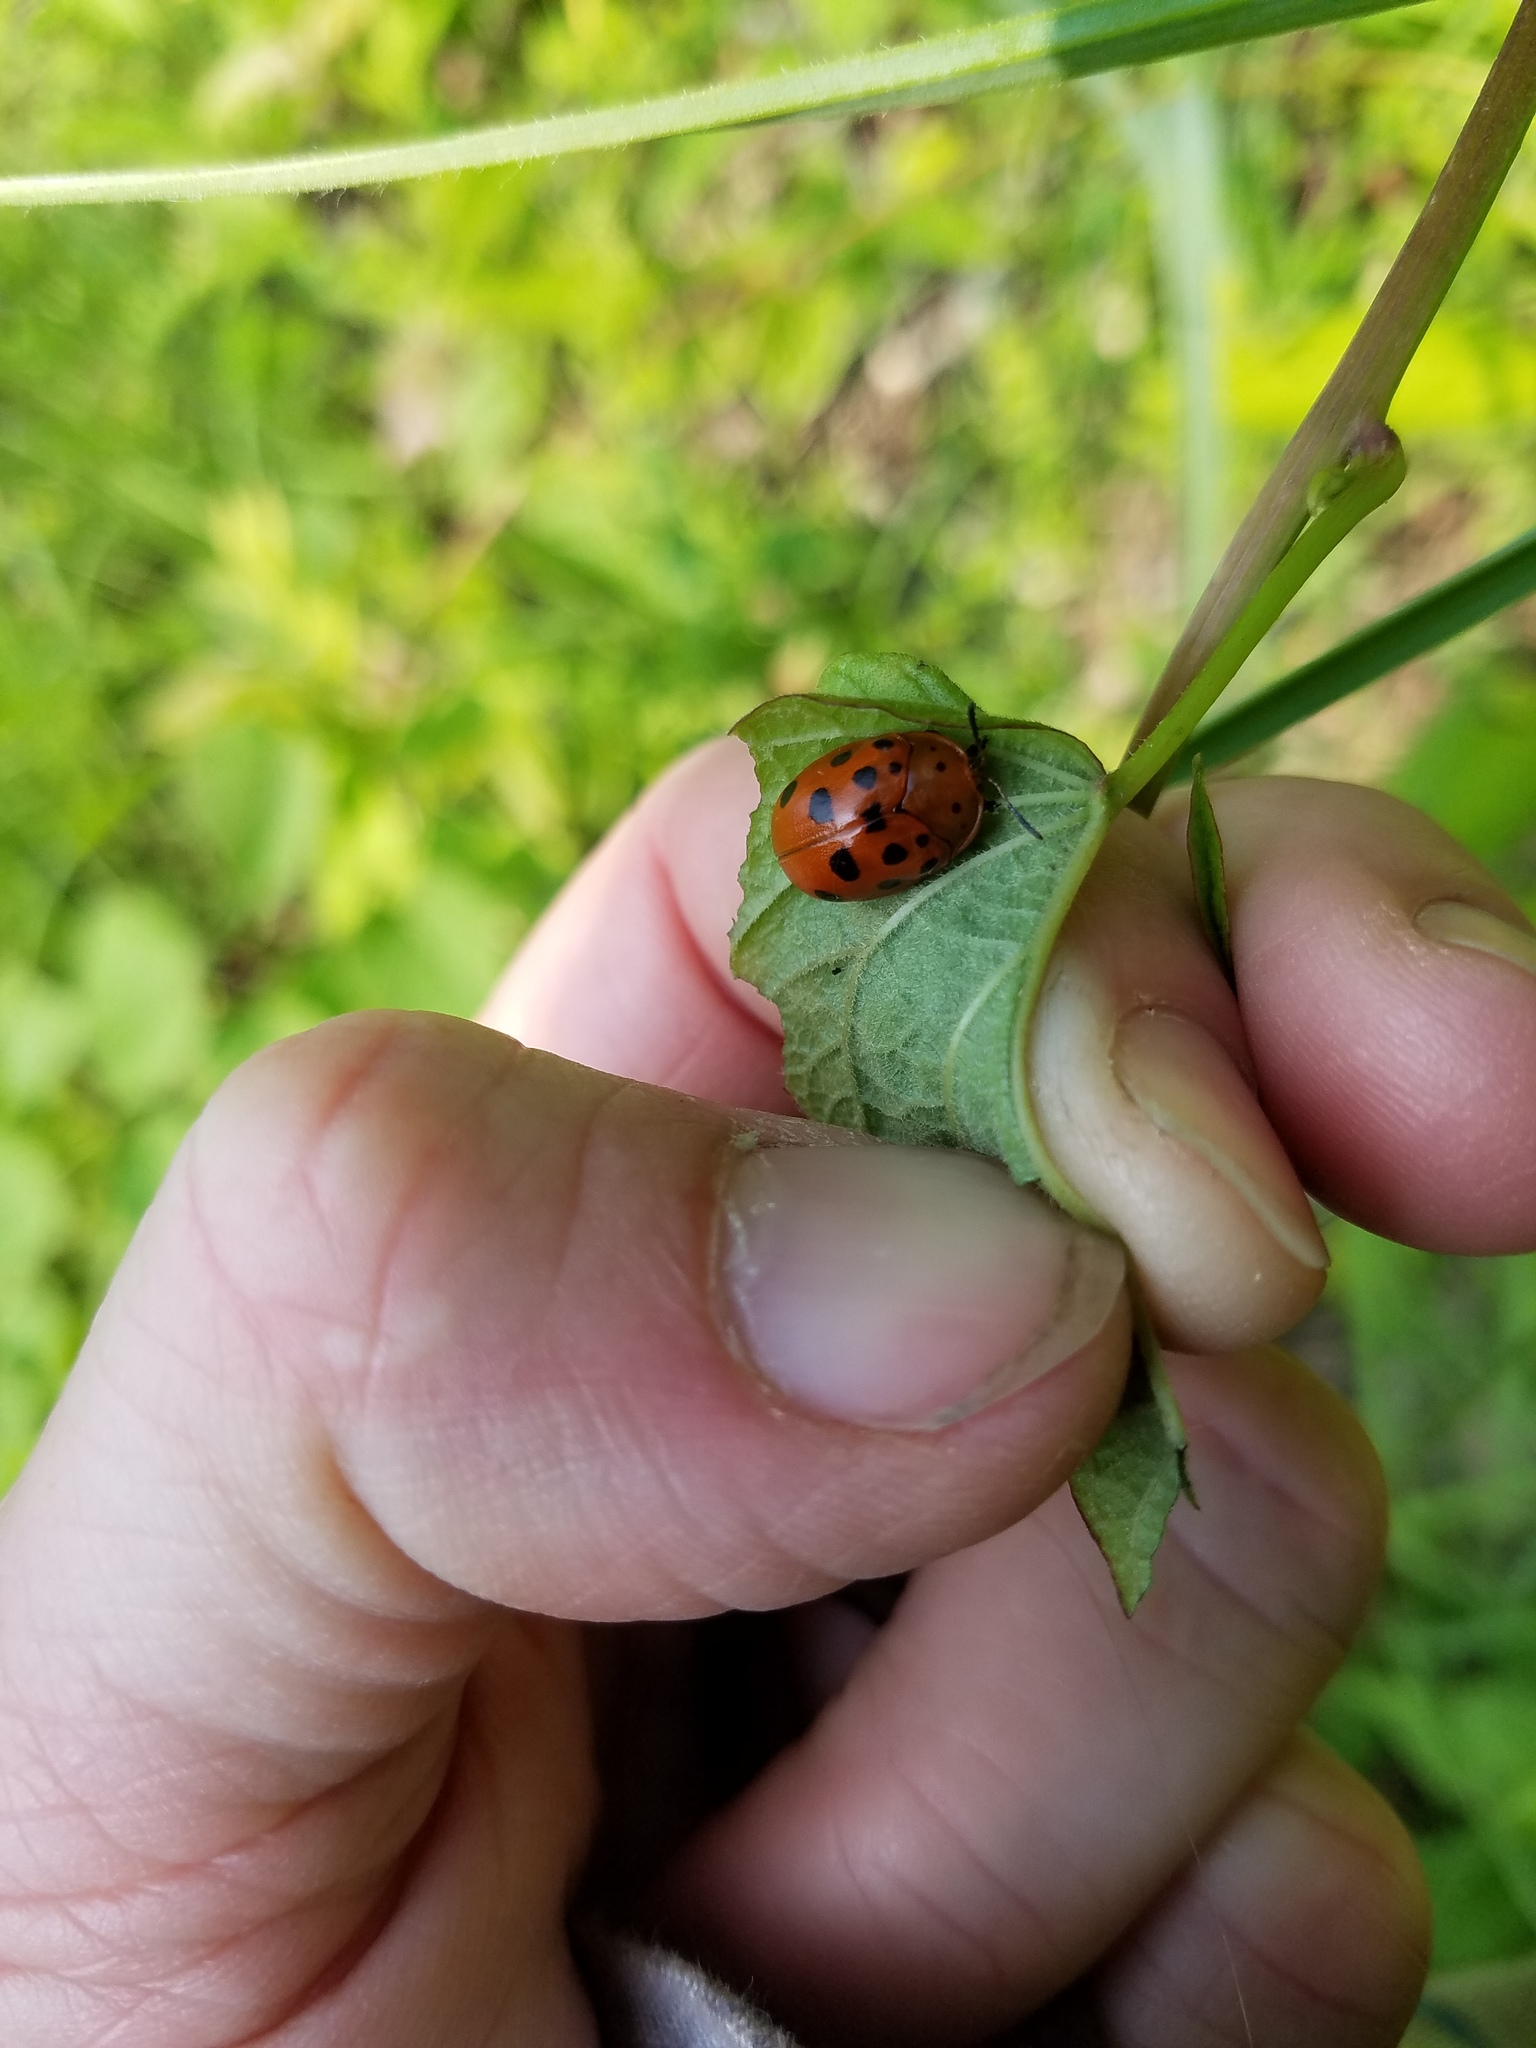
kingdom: Animalia
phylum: Arthropoda
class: Insecta
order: Coleoptera
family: Chrysomelidae
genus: Chelymorpha
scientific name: Chelymorpha cassidea
